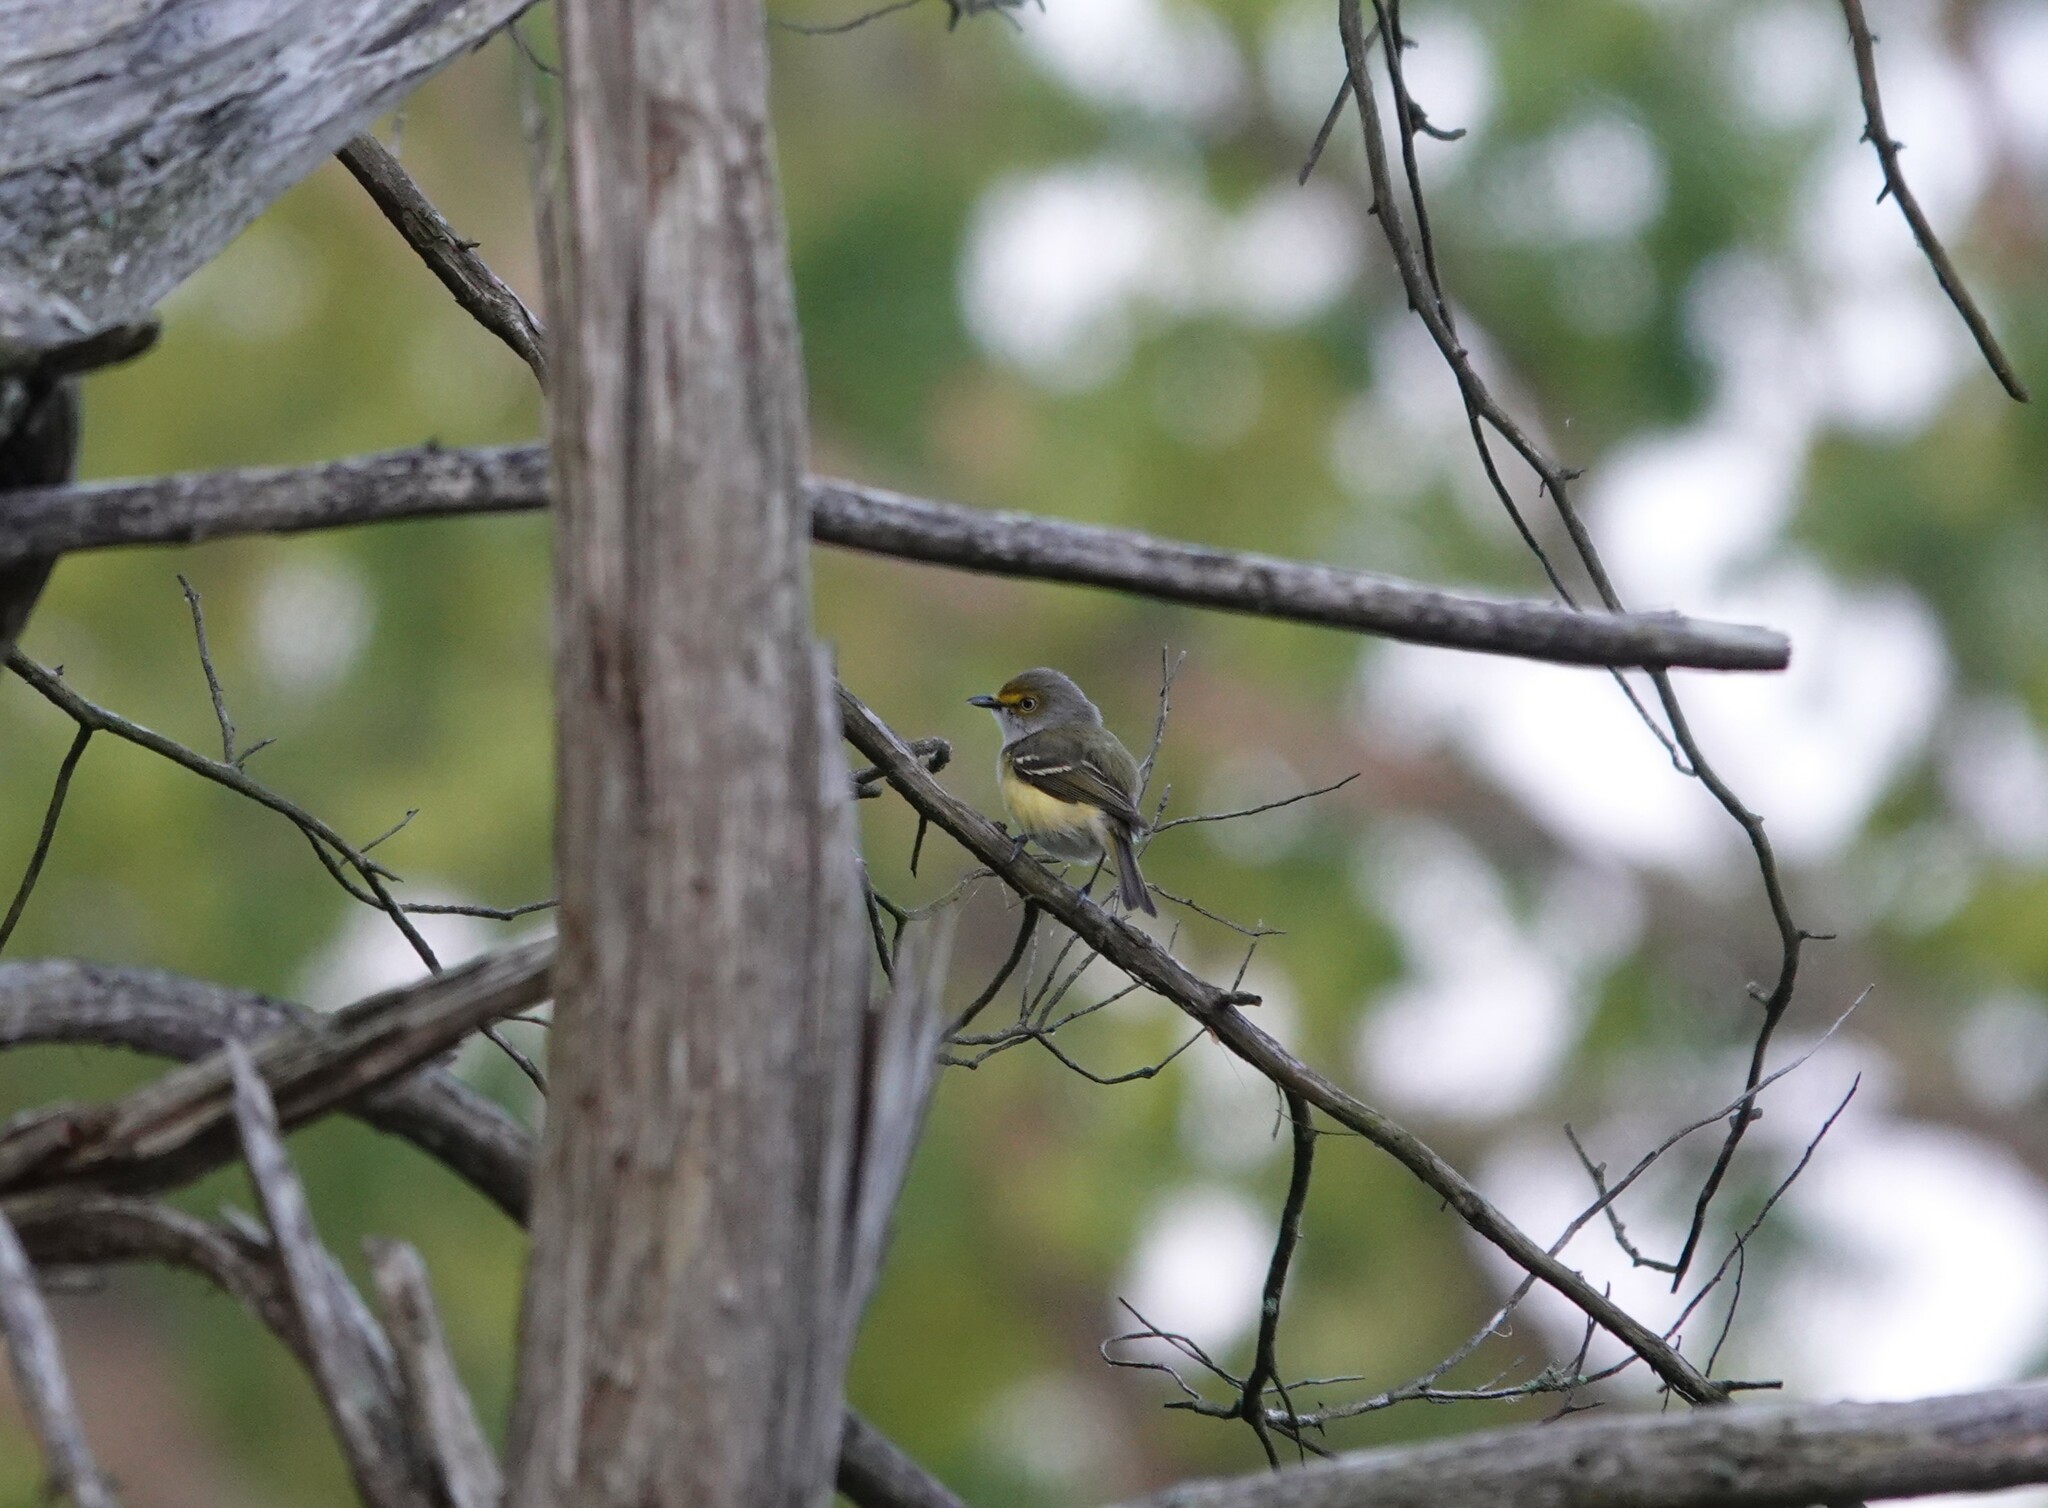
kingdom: Animalia
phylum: Chordata
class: Aves
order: Passeriformes
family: Vireonidae
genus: Vireo
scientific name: Vireo griseus
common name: White-eyed vireo
